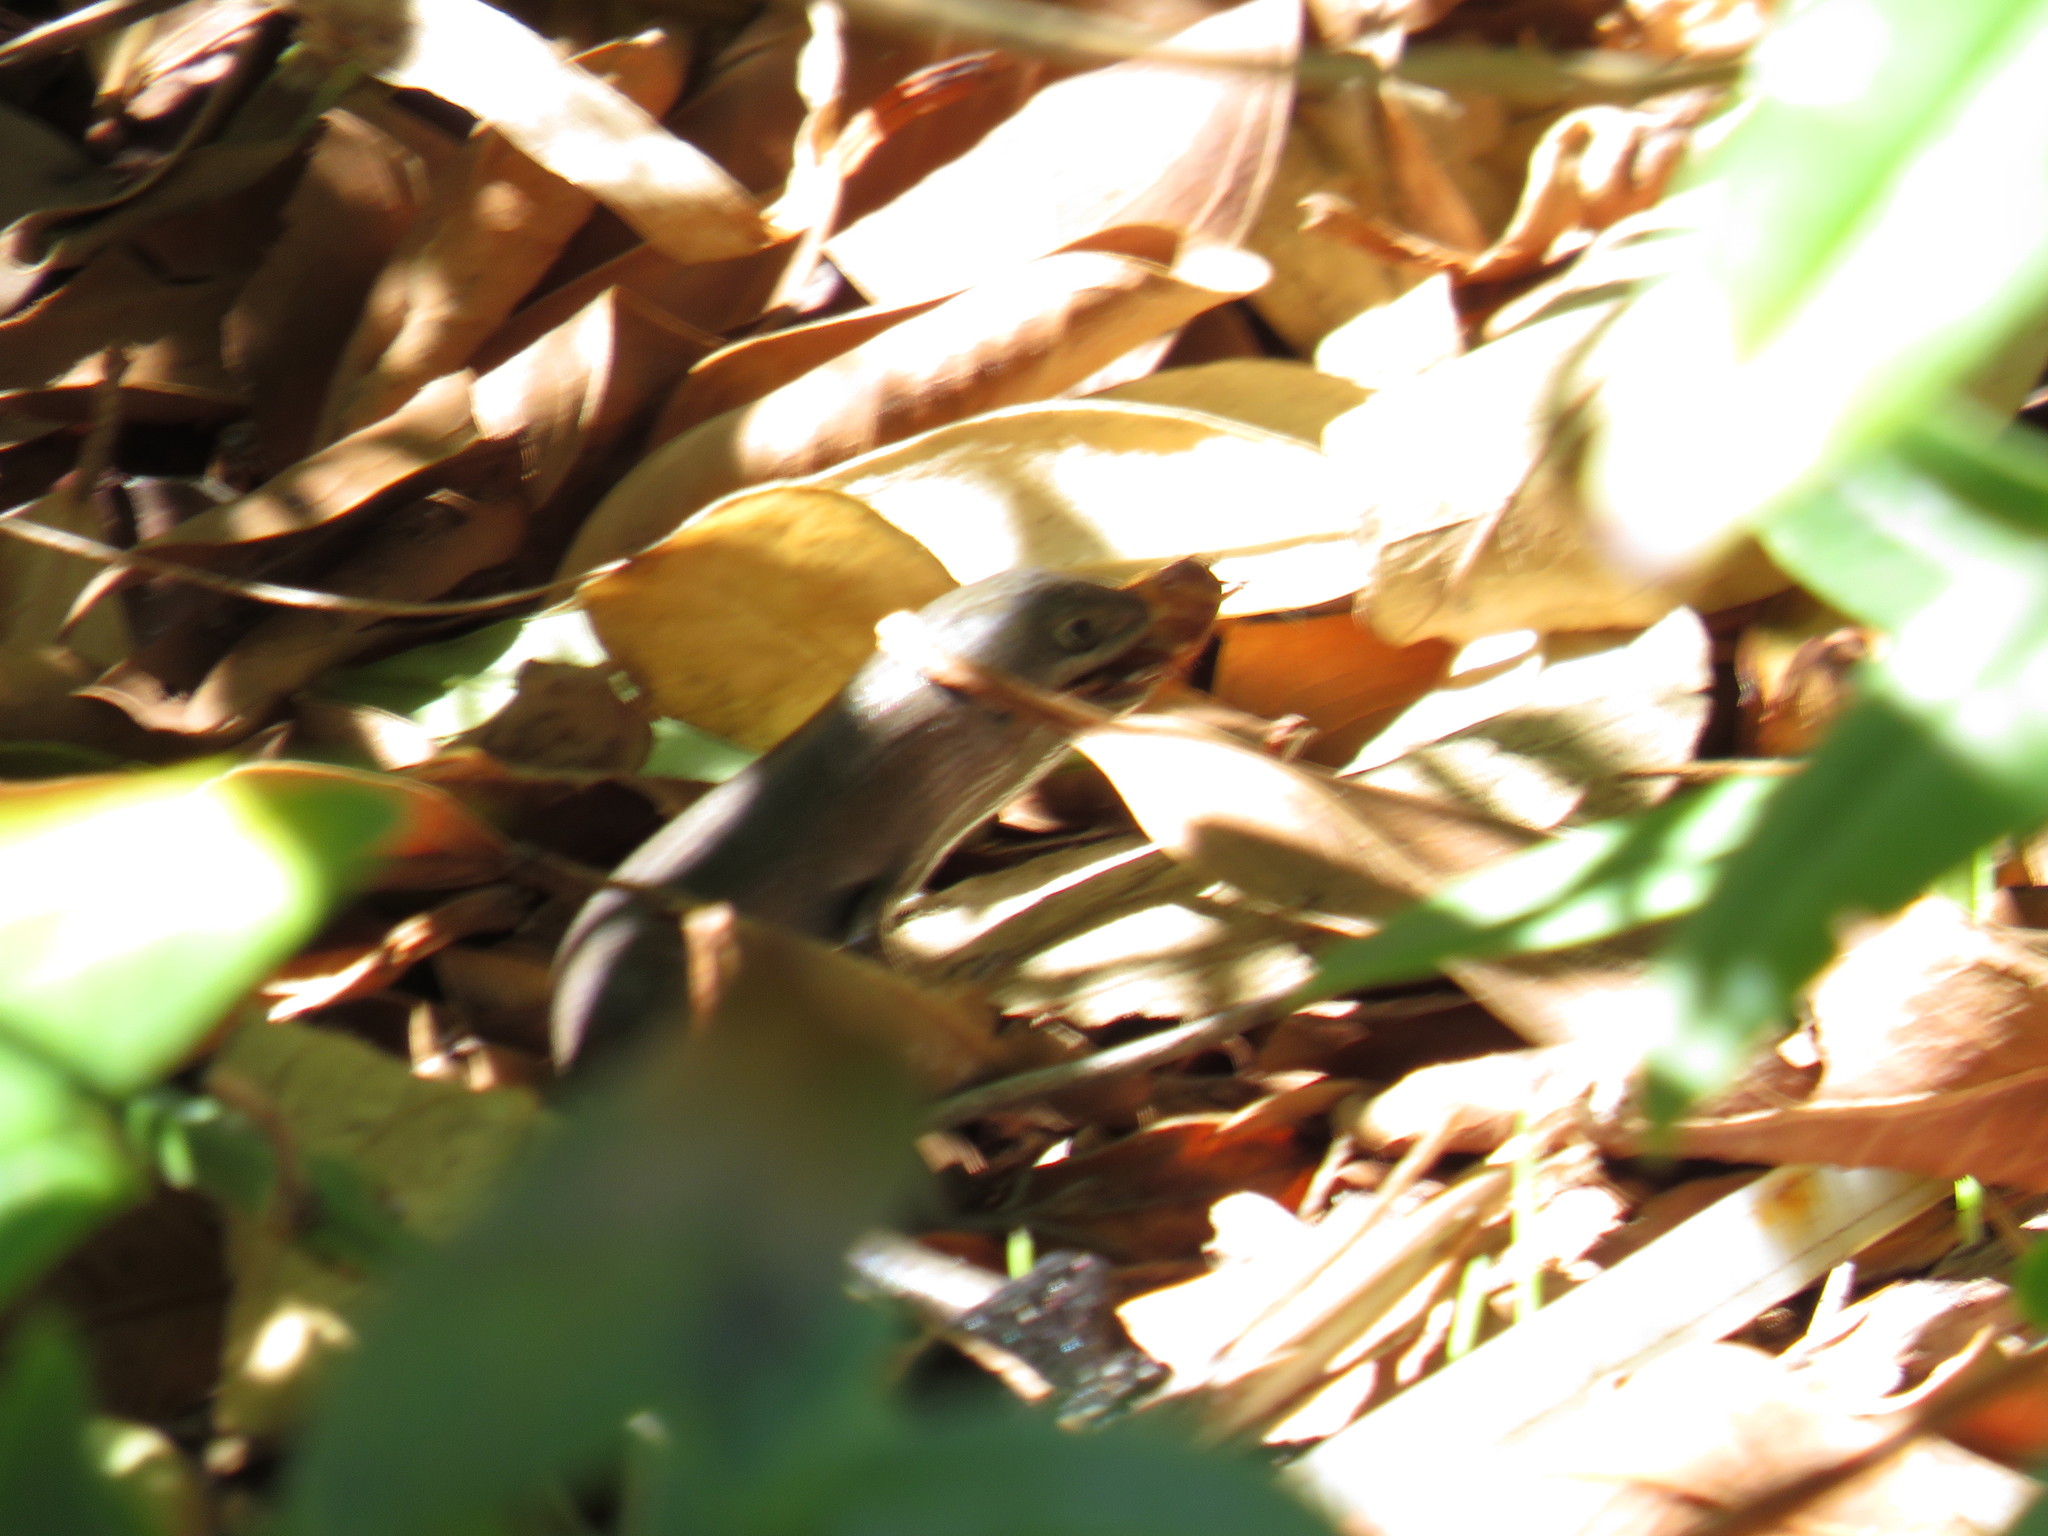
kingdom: Animalia
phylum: Chordata
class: Squamata
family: Scincidae
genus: Trachylepis
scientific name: Trachylepis capensis
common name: Cape skink
